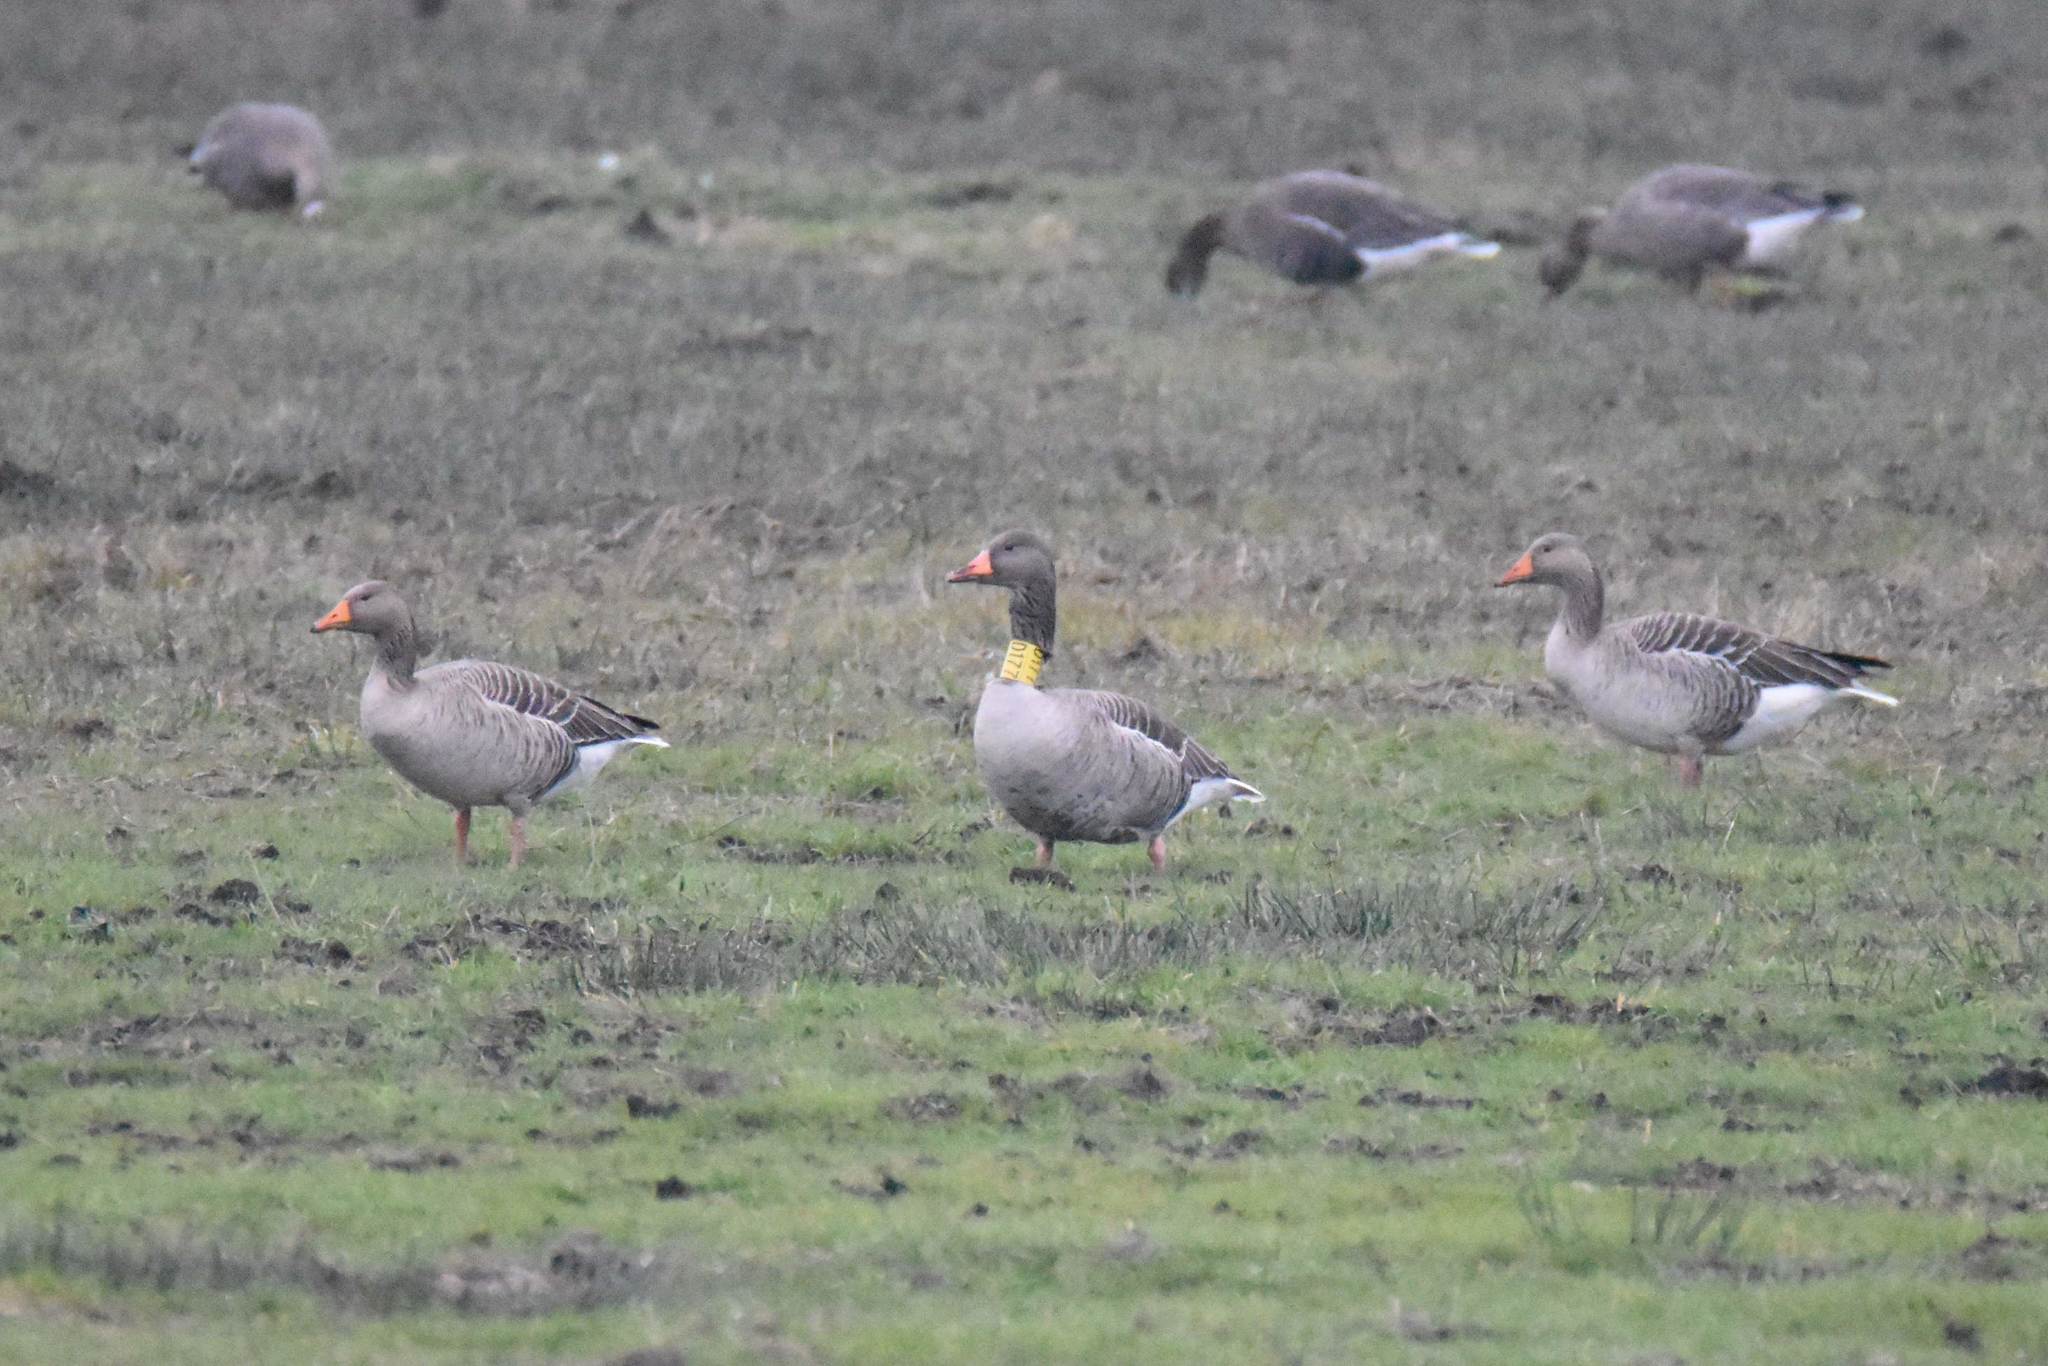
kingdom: Animalia
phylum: Chordata
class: Aves
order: Anseriformes
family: Anatidae
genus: Anser
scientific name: Anser anser
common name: Greylag goose
